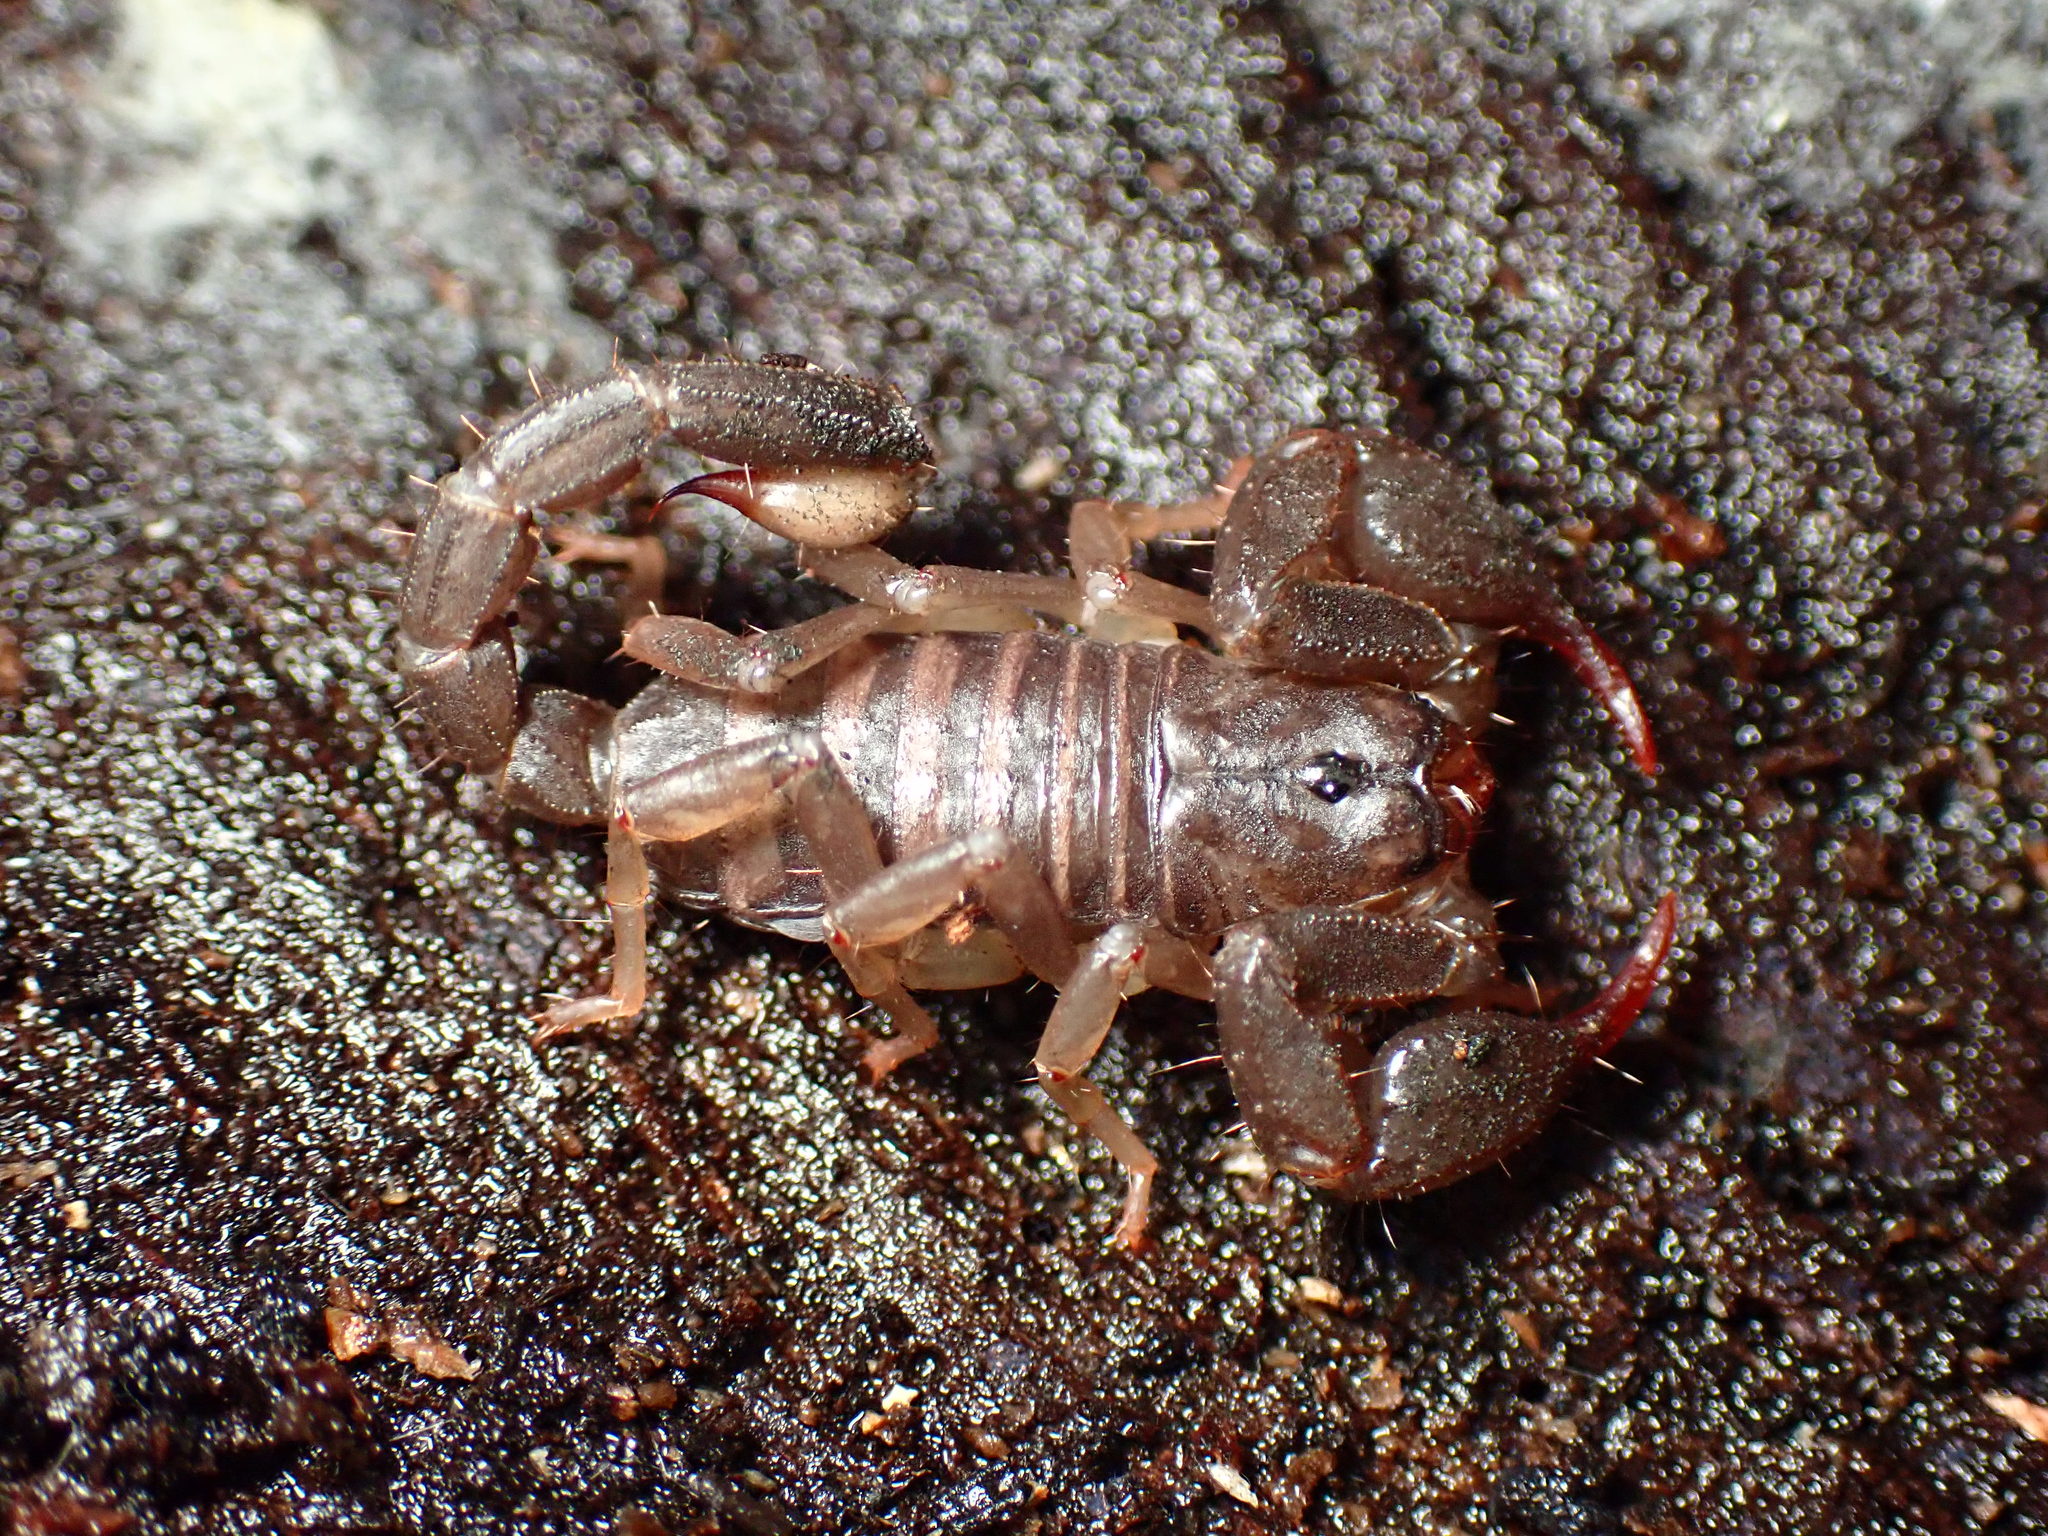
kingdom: Animalia
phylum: Arthropoda
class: Arachnida
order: Scorpiones
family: Chactidae
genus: Uroctonus
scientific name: Uroctonus mordax
